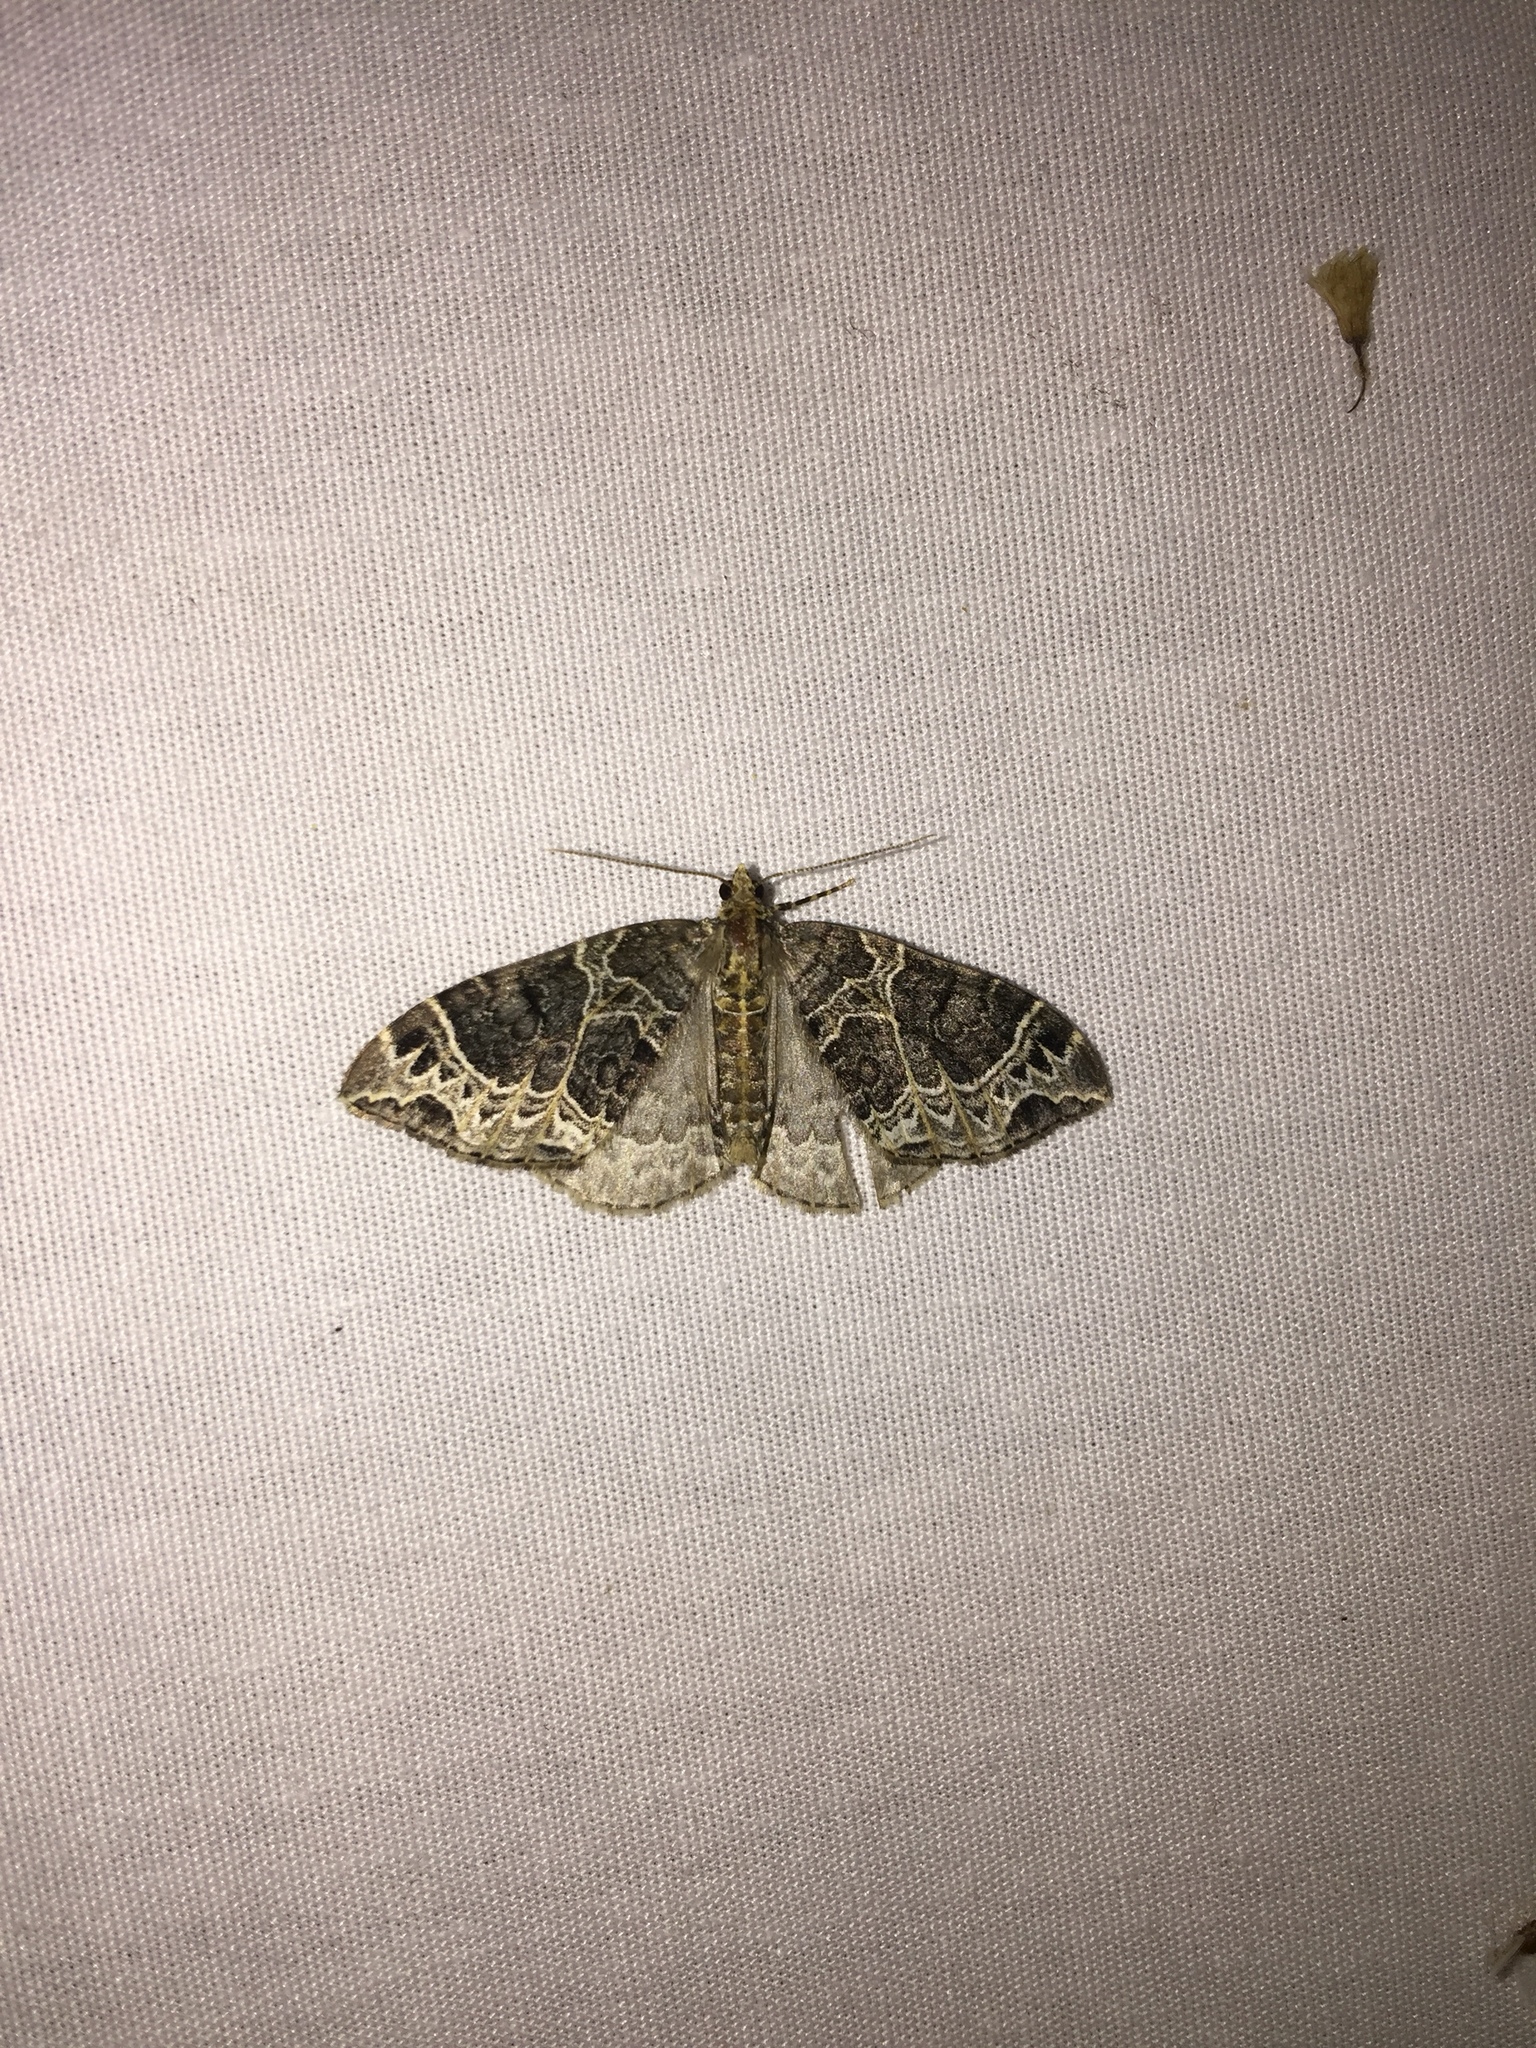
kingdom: Animalia
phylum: Arthropoda
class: Insecta
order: Lepidoptera
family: Geometridae
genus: Ecliptopera
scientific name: Ecliptopera silaceata
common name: Small phoenix
